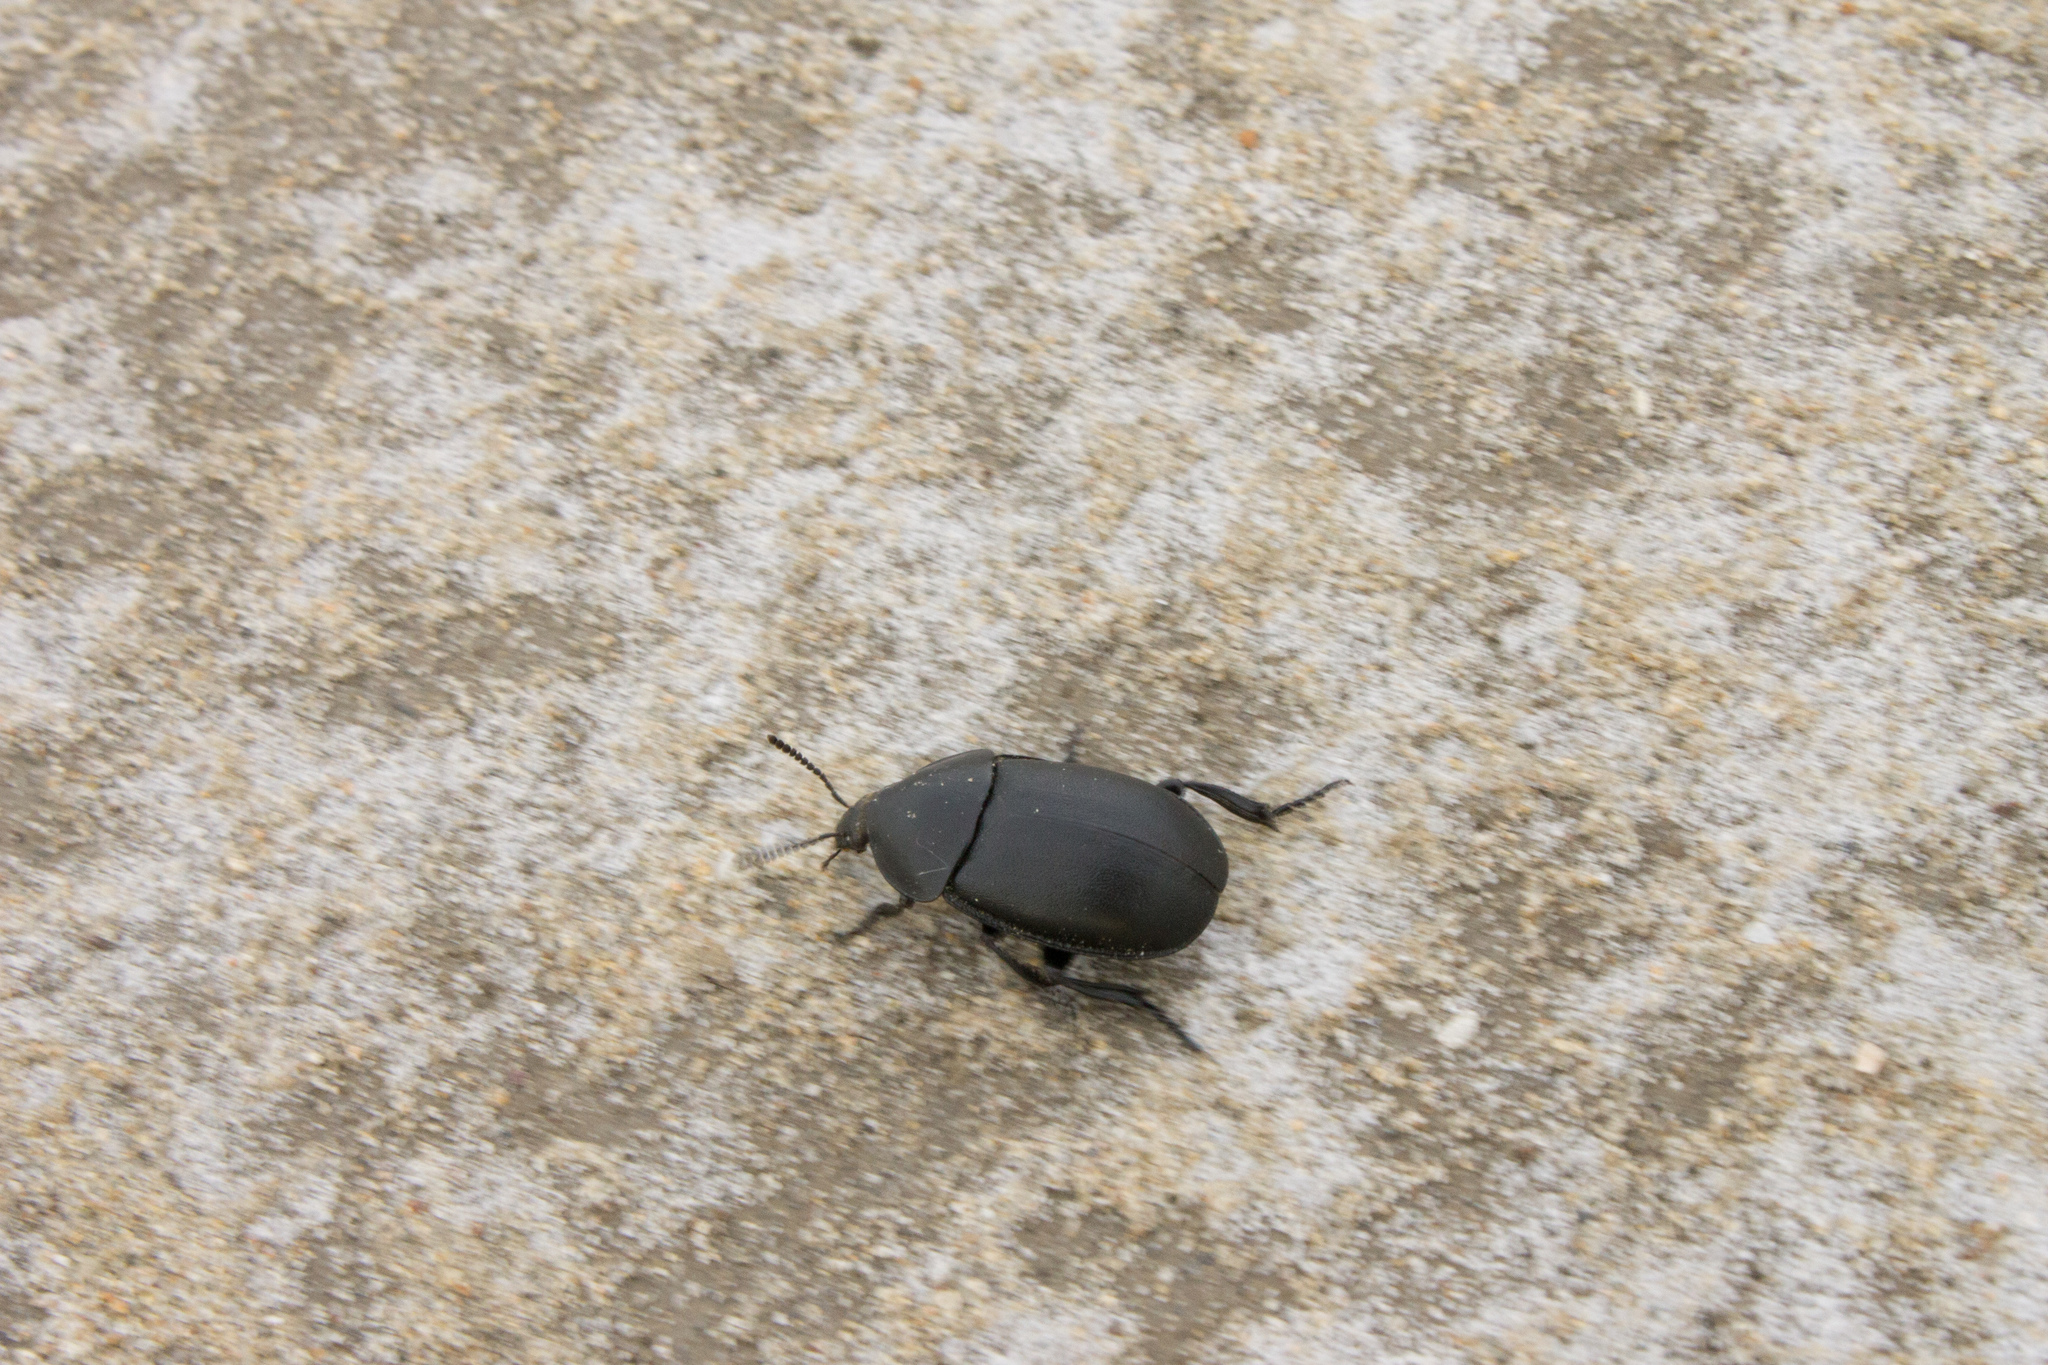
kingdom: Animalia
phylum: Arthropoda
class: Insecta
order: Coleoptera
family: Staphylinidae
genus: Silpha
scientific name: Silpha laevigata
